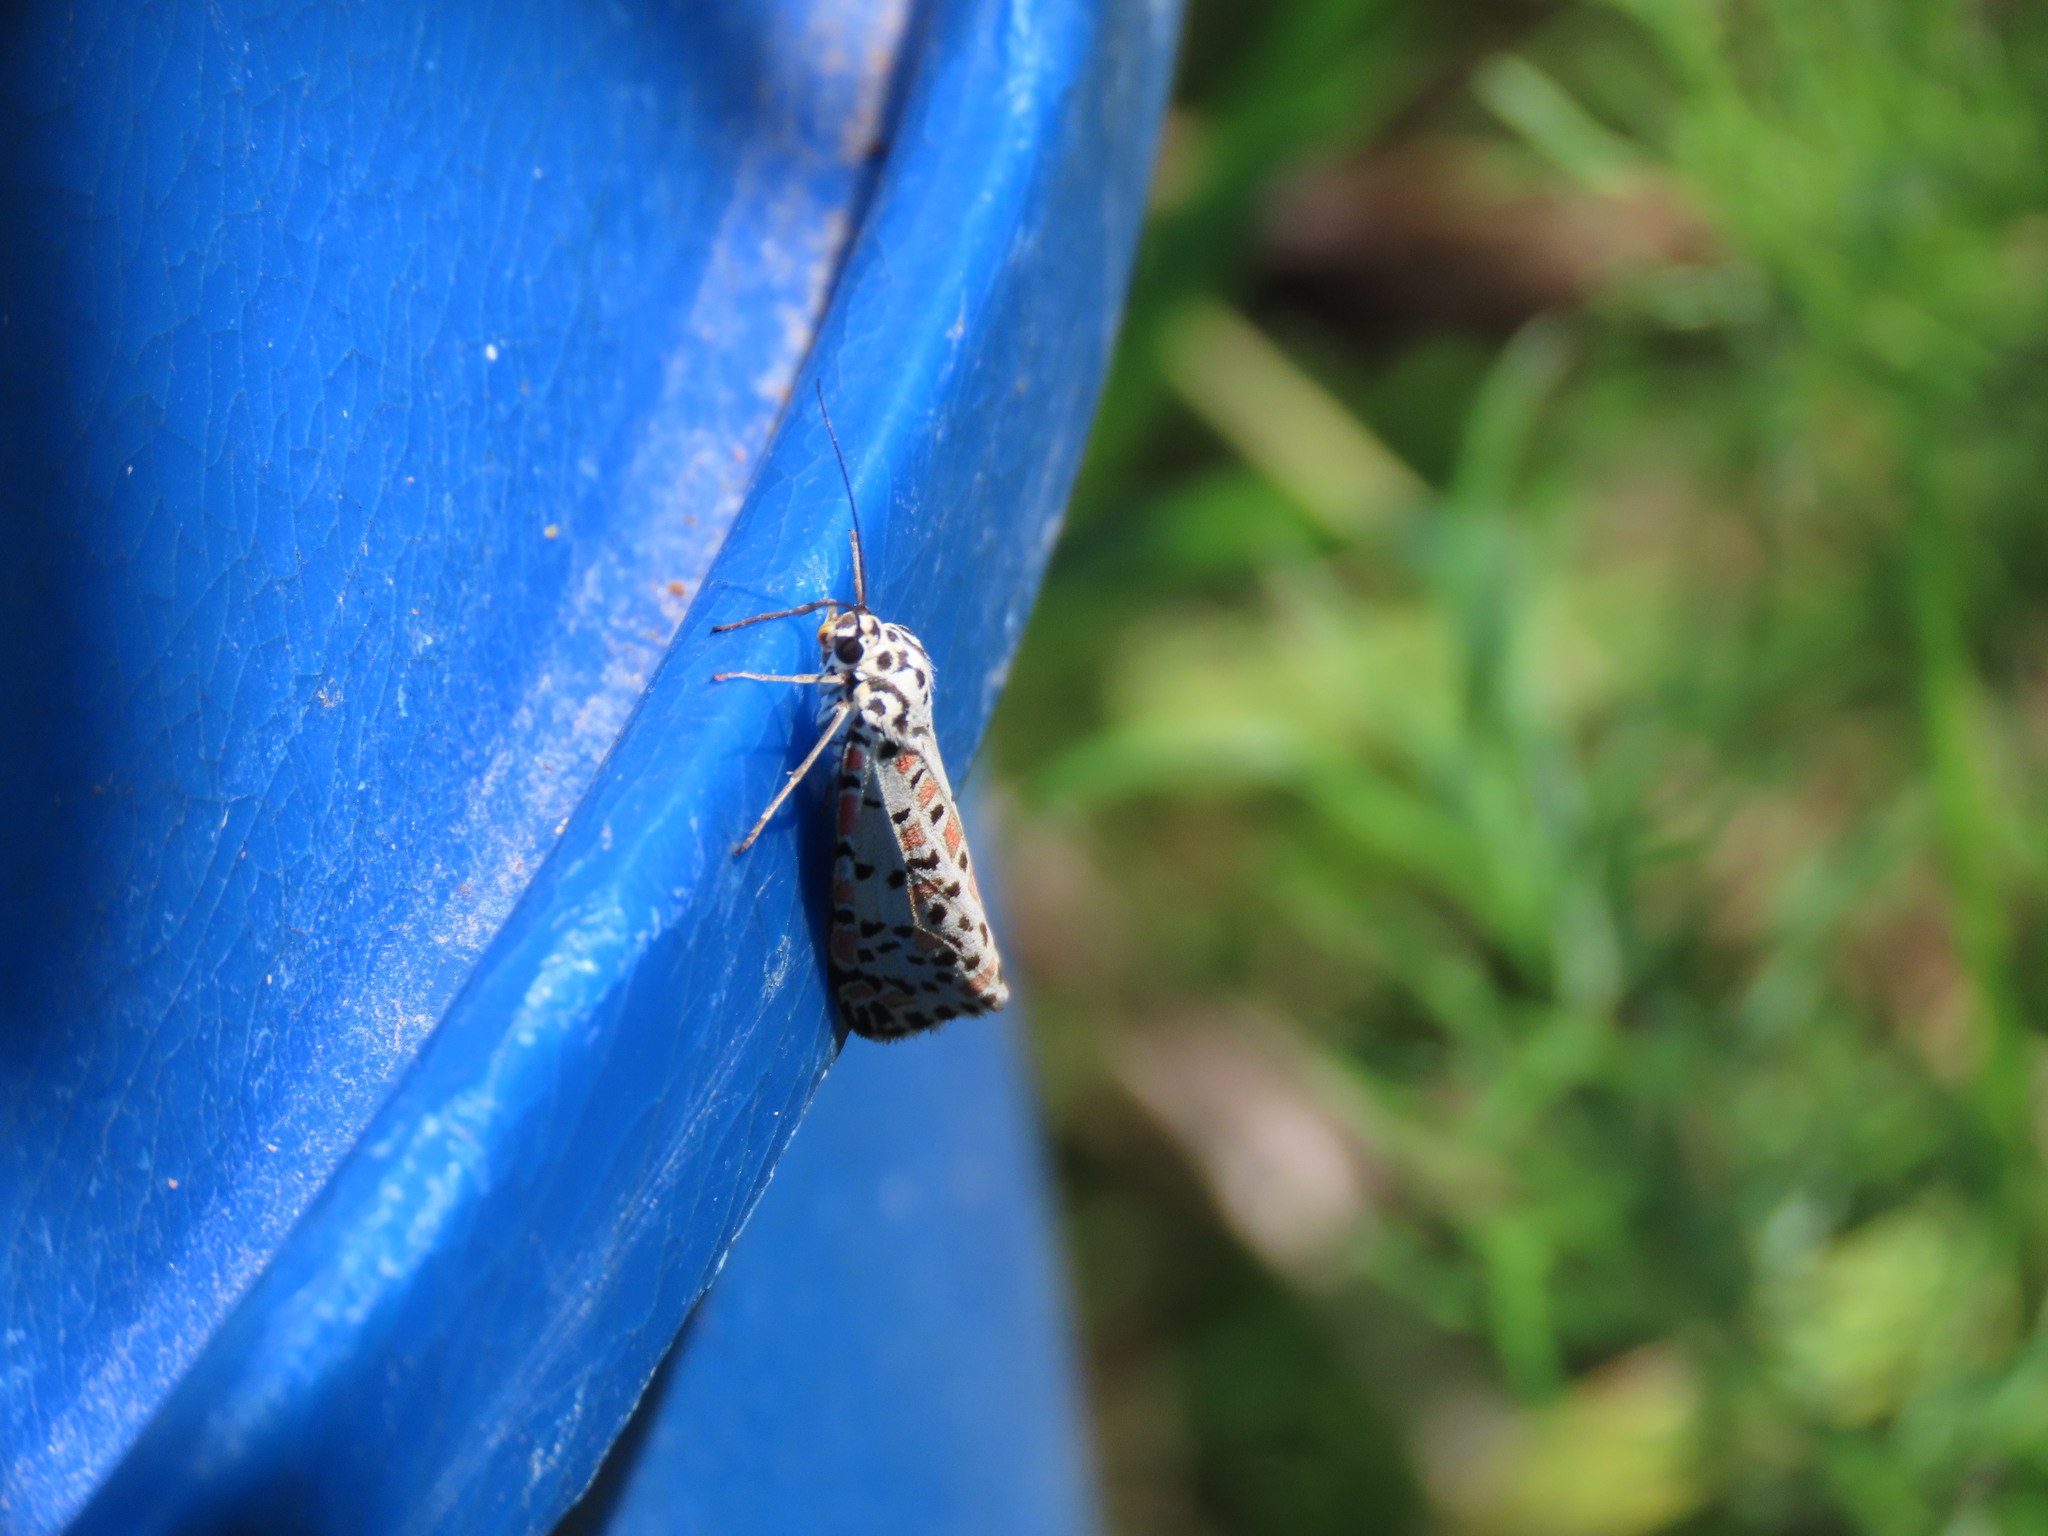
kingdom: Animalia
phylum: Arthropoda
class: Insecta
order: Lepidoptera
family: Erebidae
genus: Utetheisa
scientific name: Utetheisa pulchelloides
